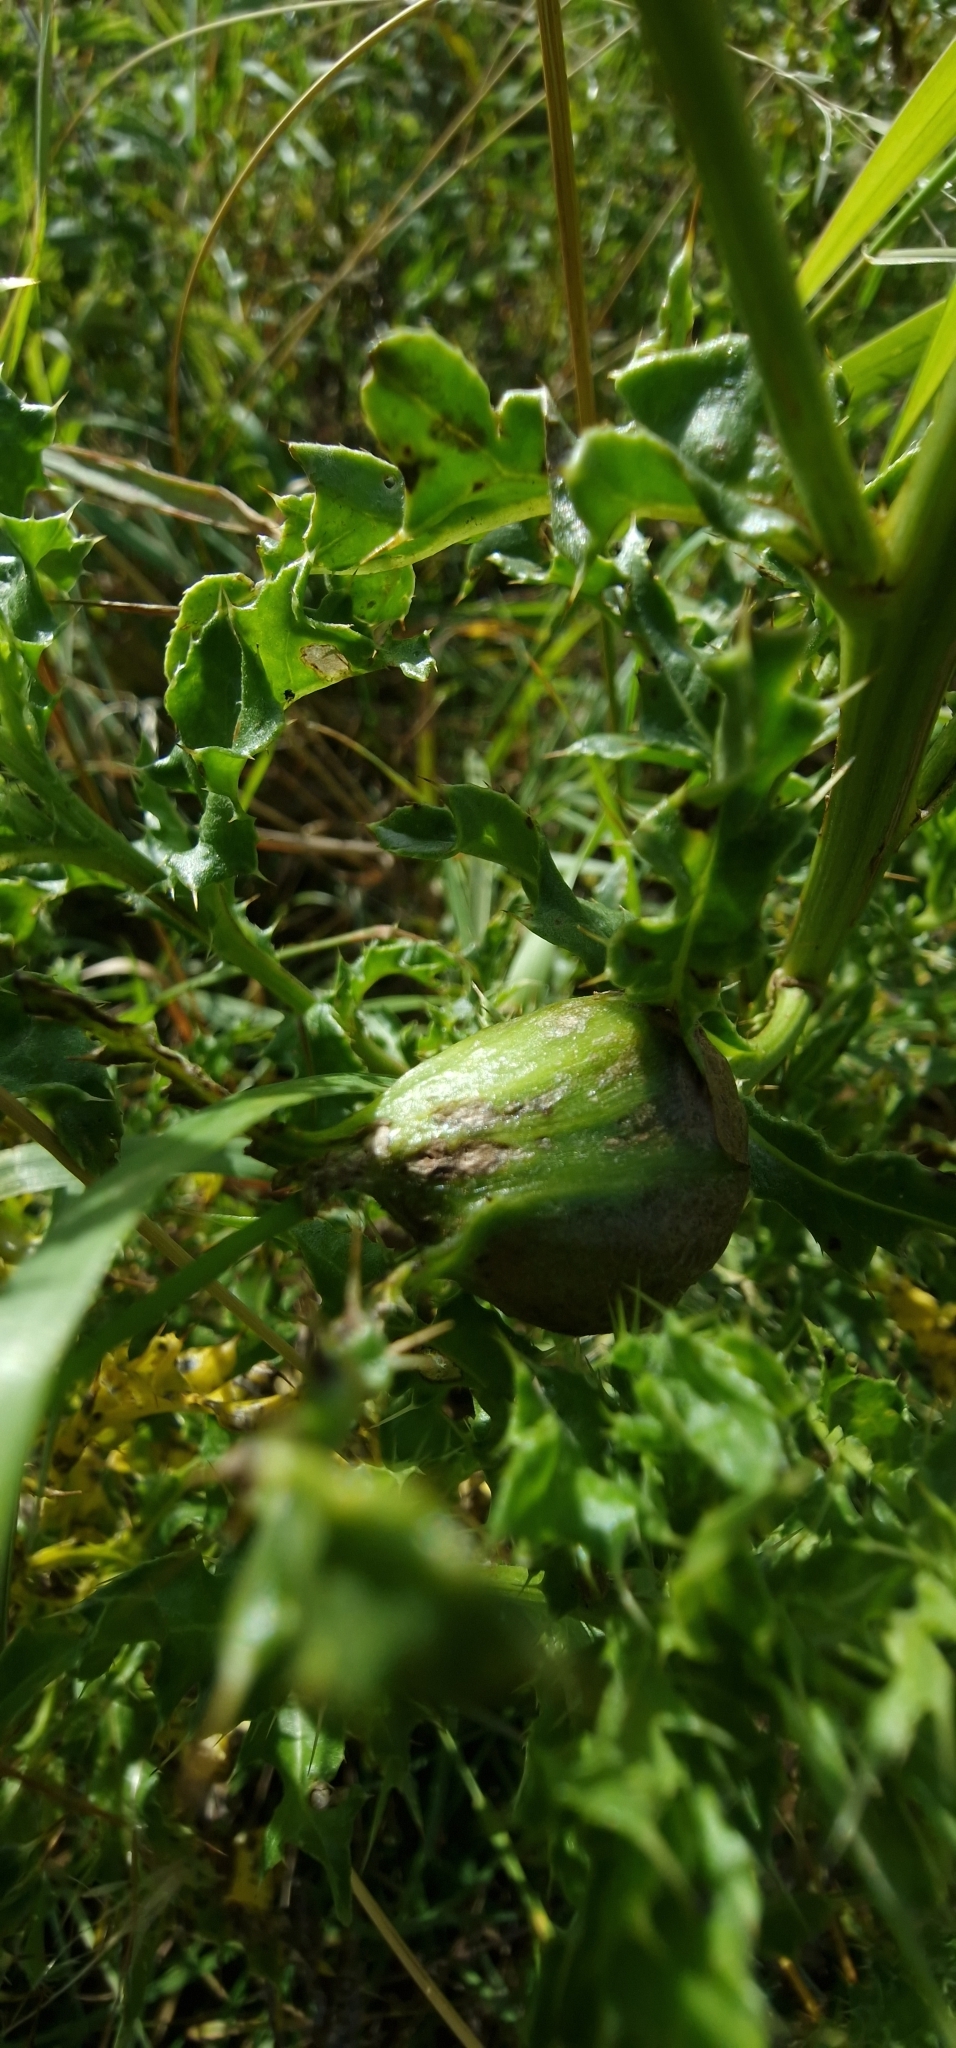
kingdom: Animalia
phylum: Arthropoda
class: Insecta
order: Diptera
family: Tephritidae
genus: Urophora
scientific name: Urophora cardui
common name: Fruit fly
